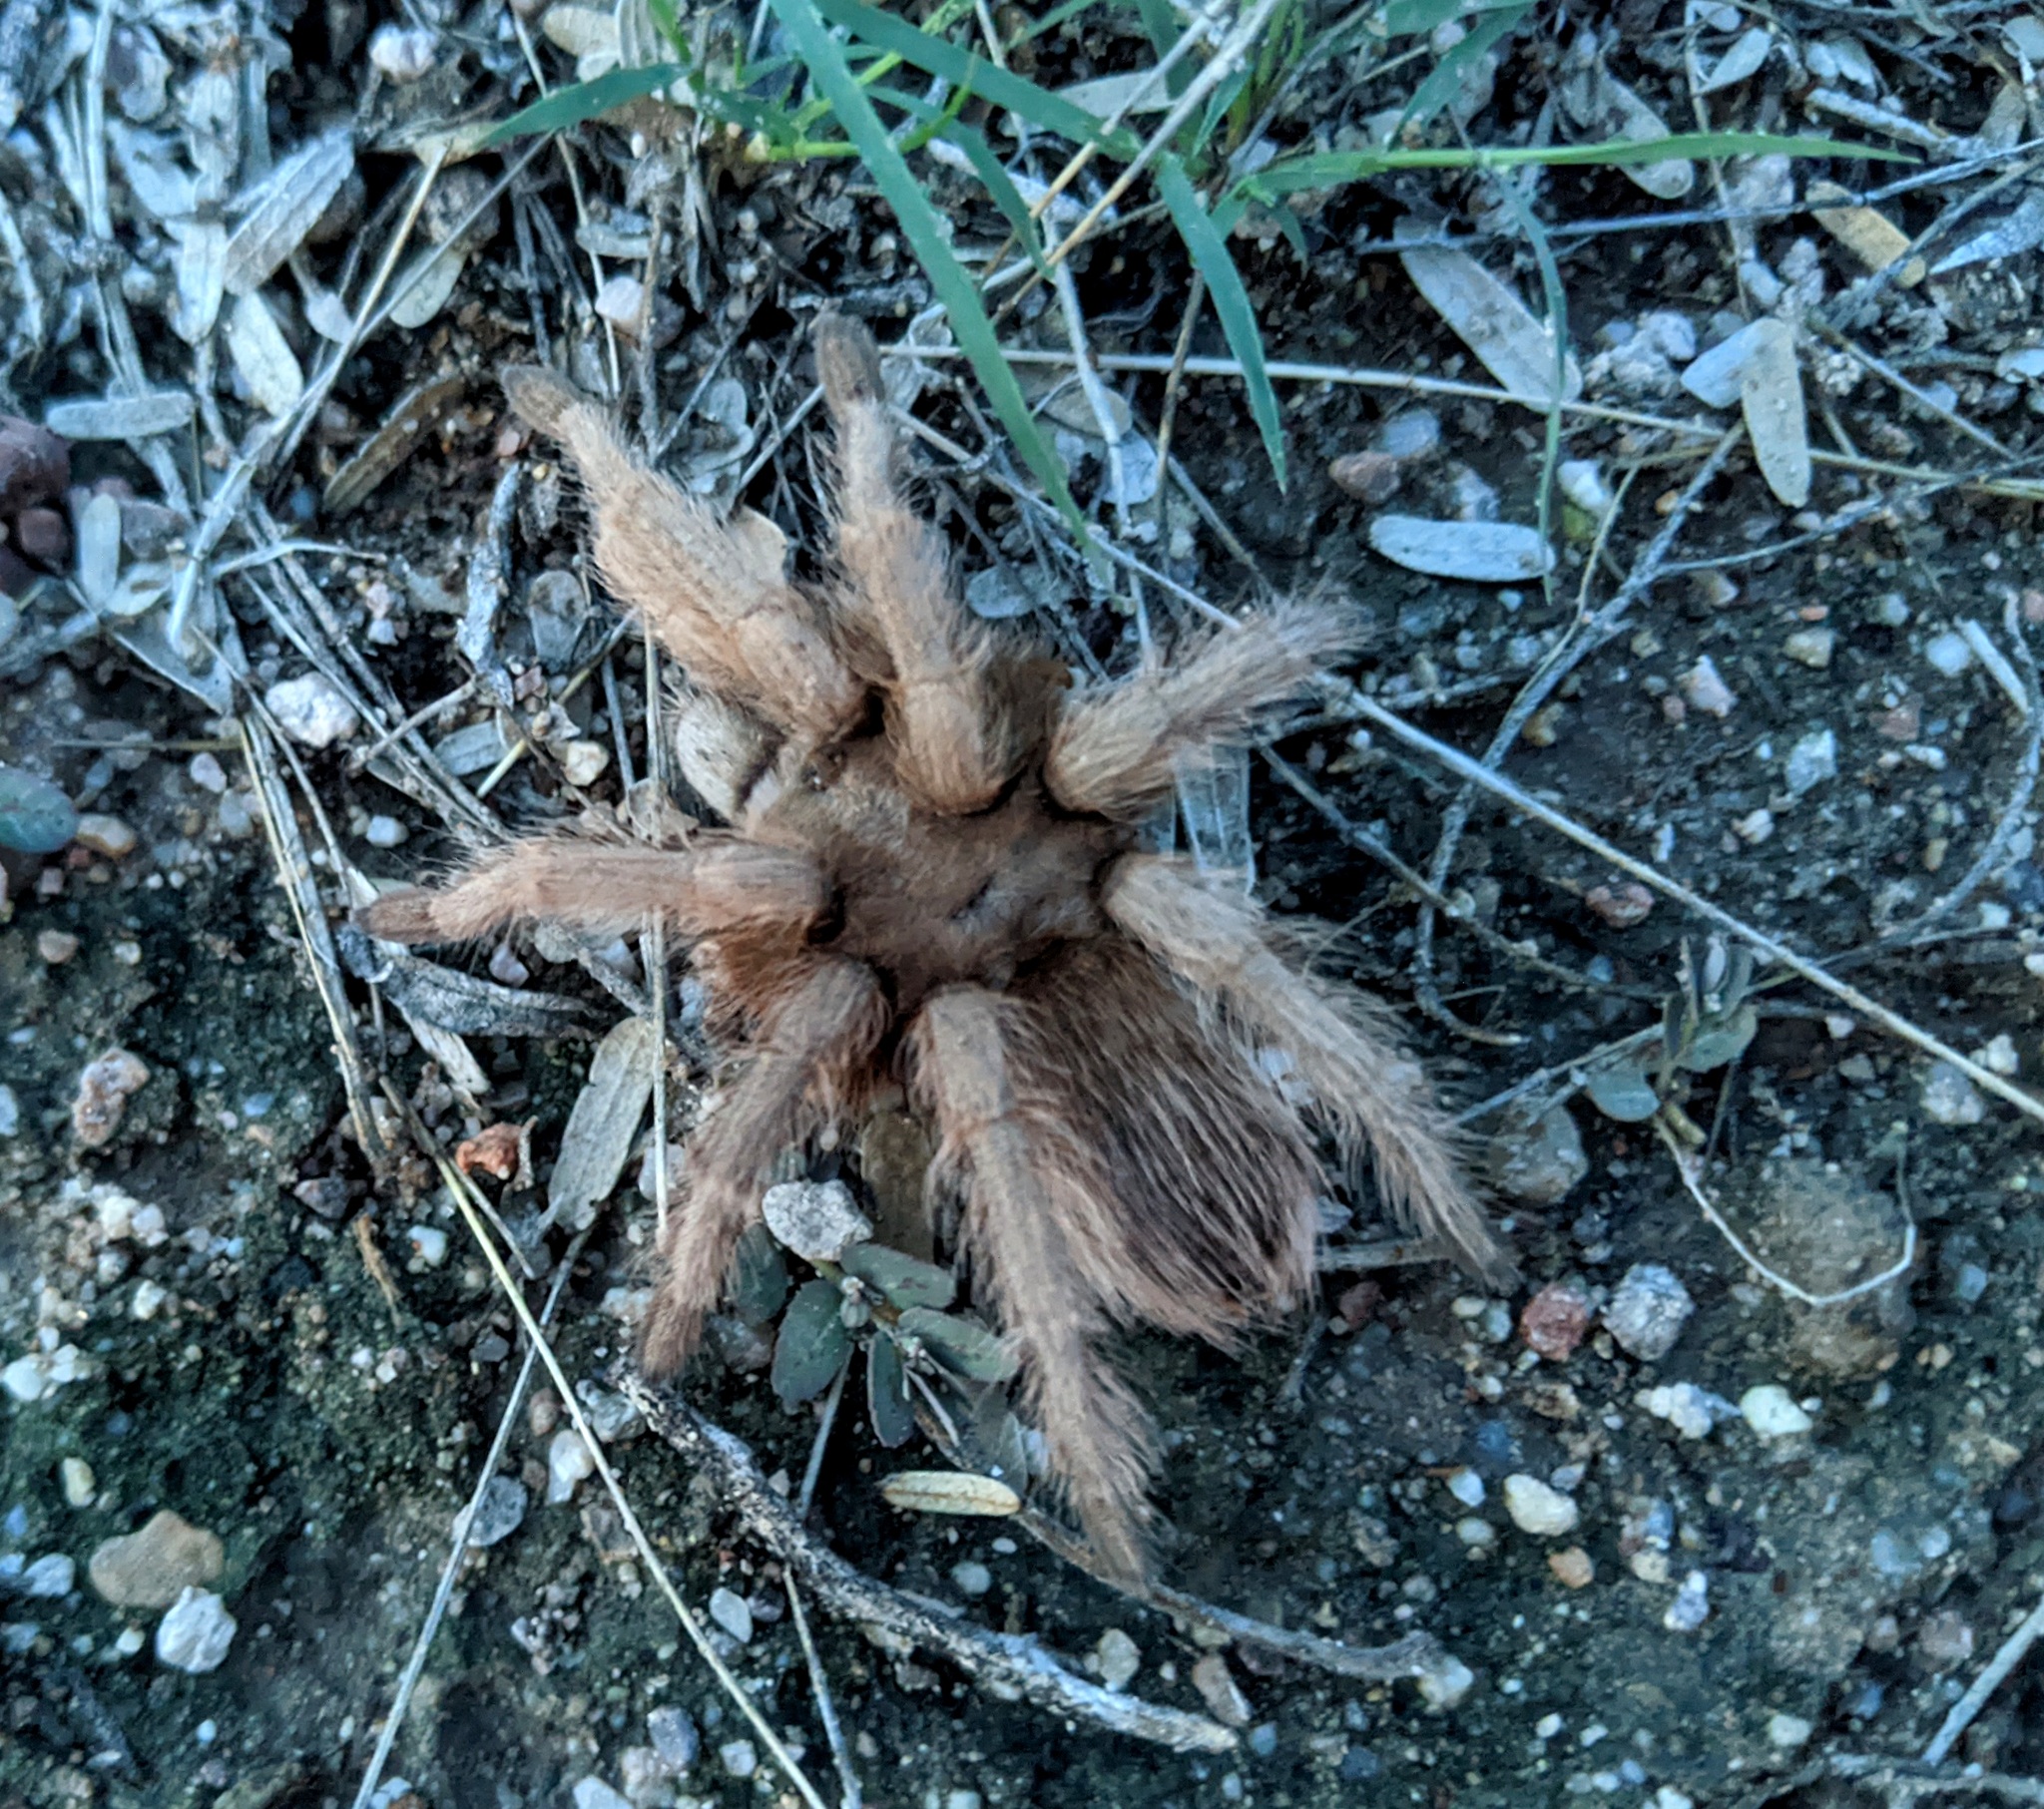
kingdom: Animalia
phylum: Arthropoda
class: Arachnida
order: Araneae
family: Theraphosidae
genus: Aphonopelma
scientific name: Aphonopelma chalcodes
